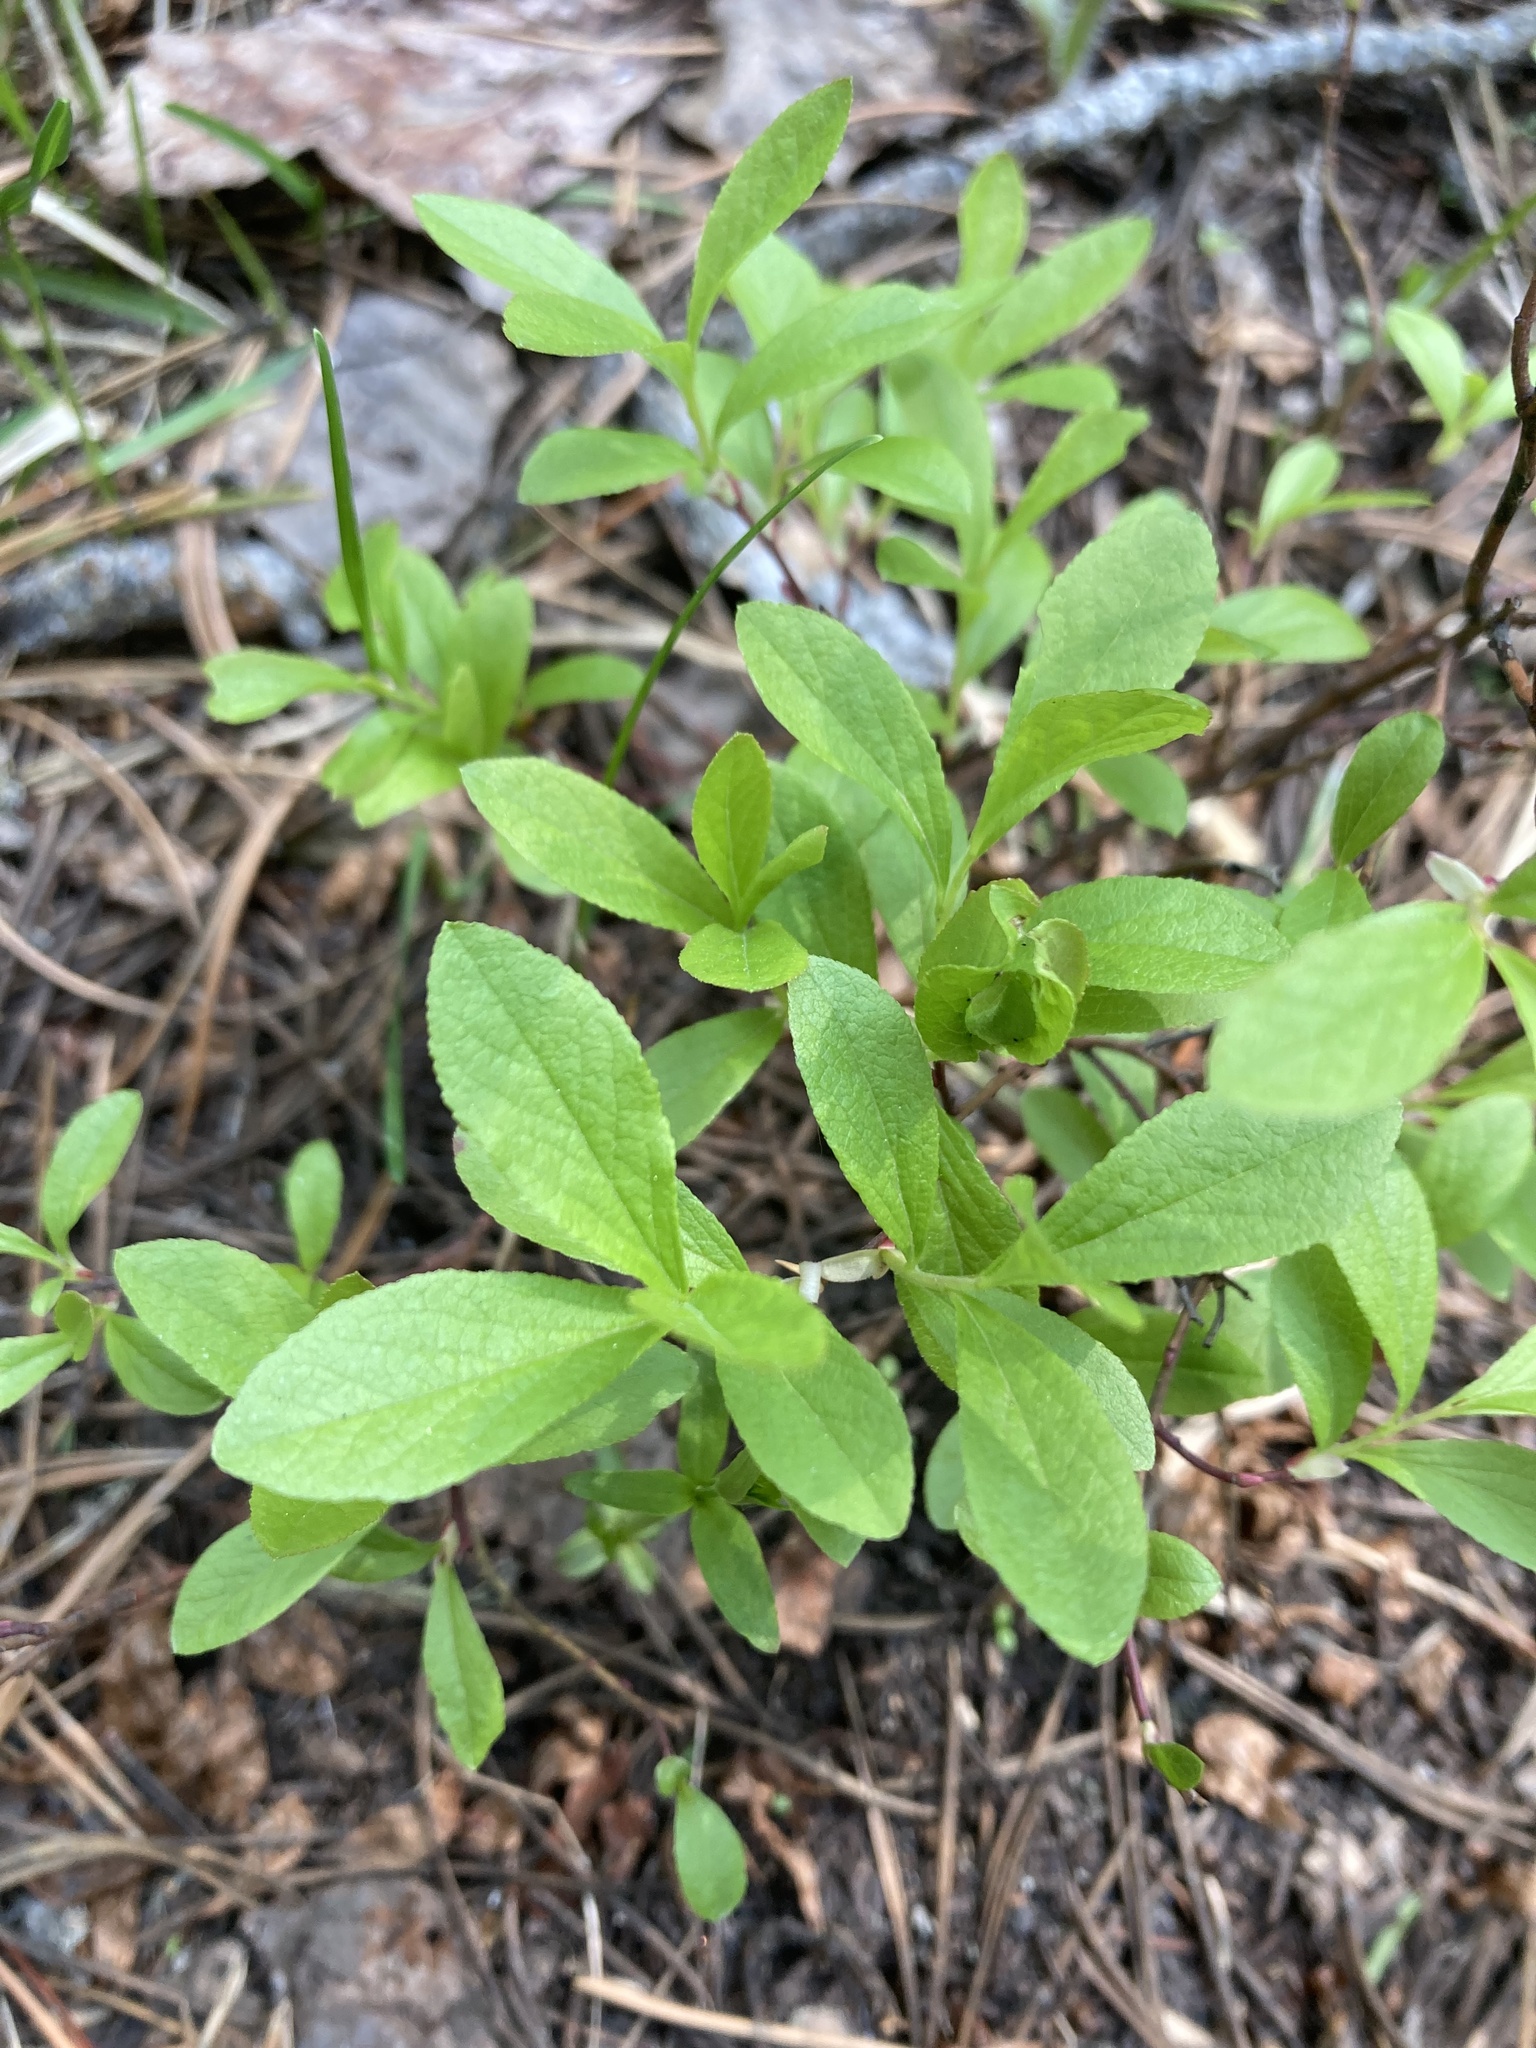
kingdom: Plantae
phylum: Tracheophyta
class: Magnoliopsida
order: Ericales
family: Ericaceae
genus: Vaccinium
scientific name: Vaccinium cespitosum
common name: Dwarf bilberry
